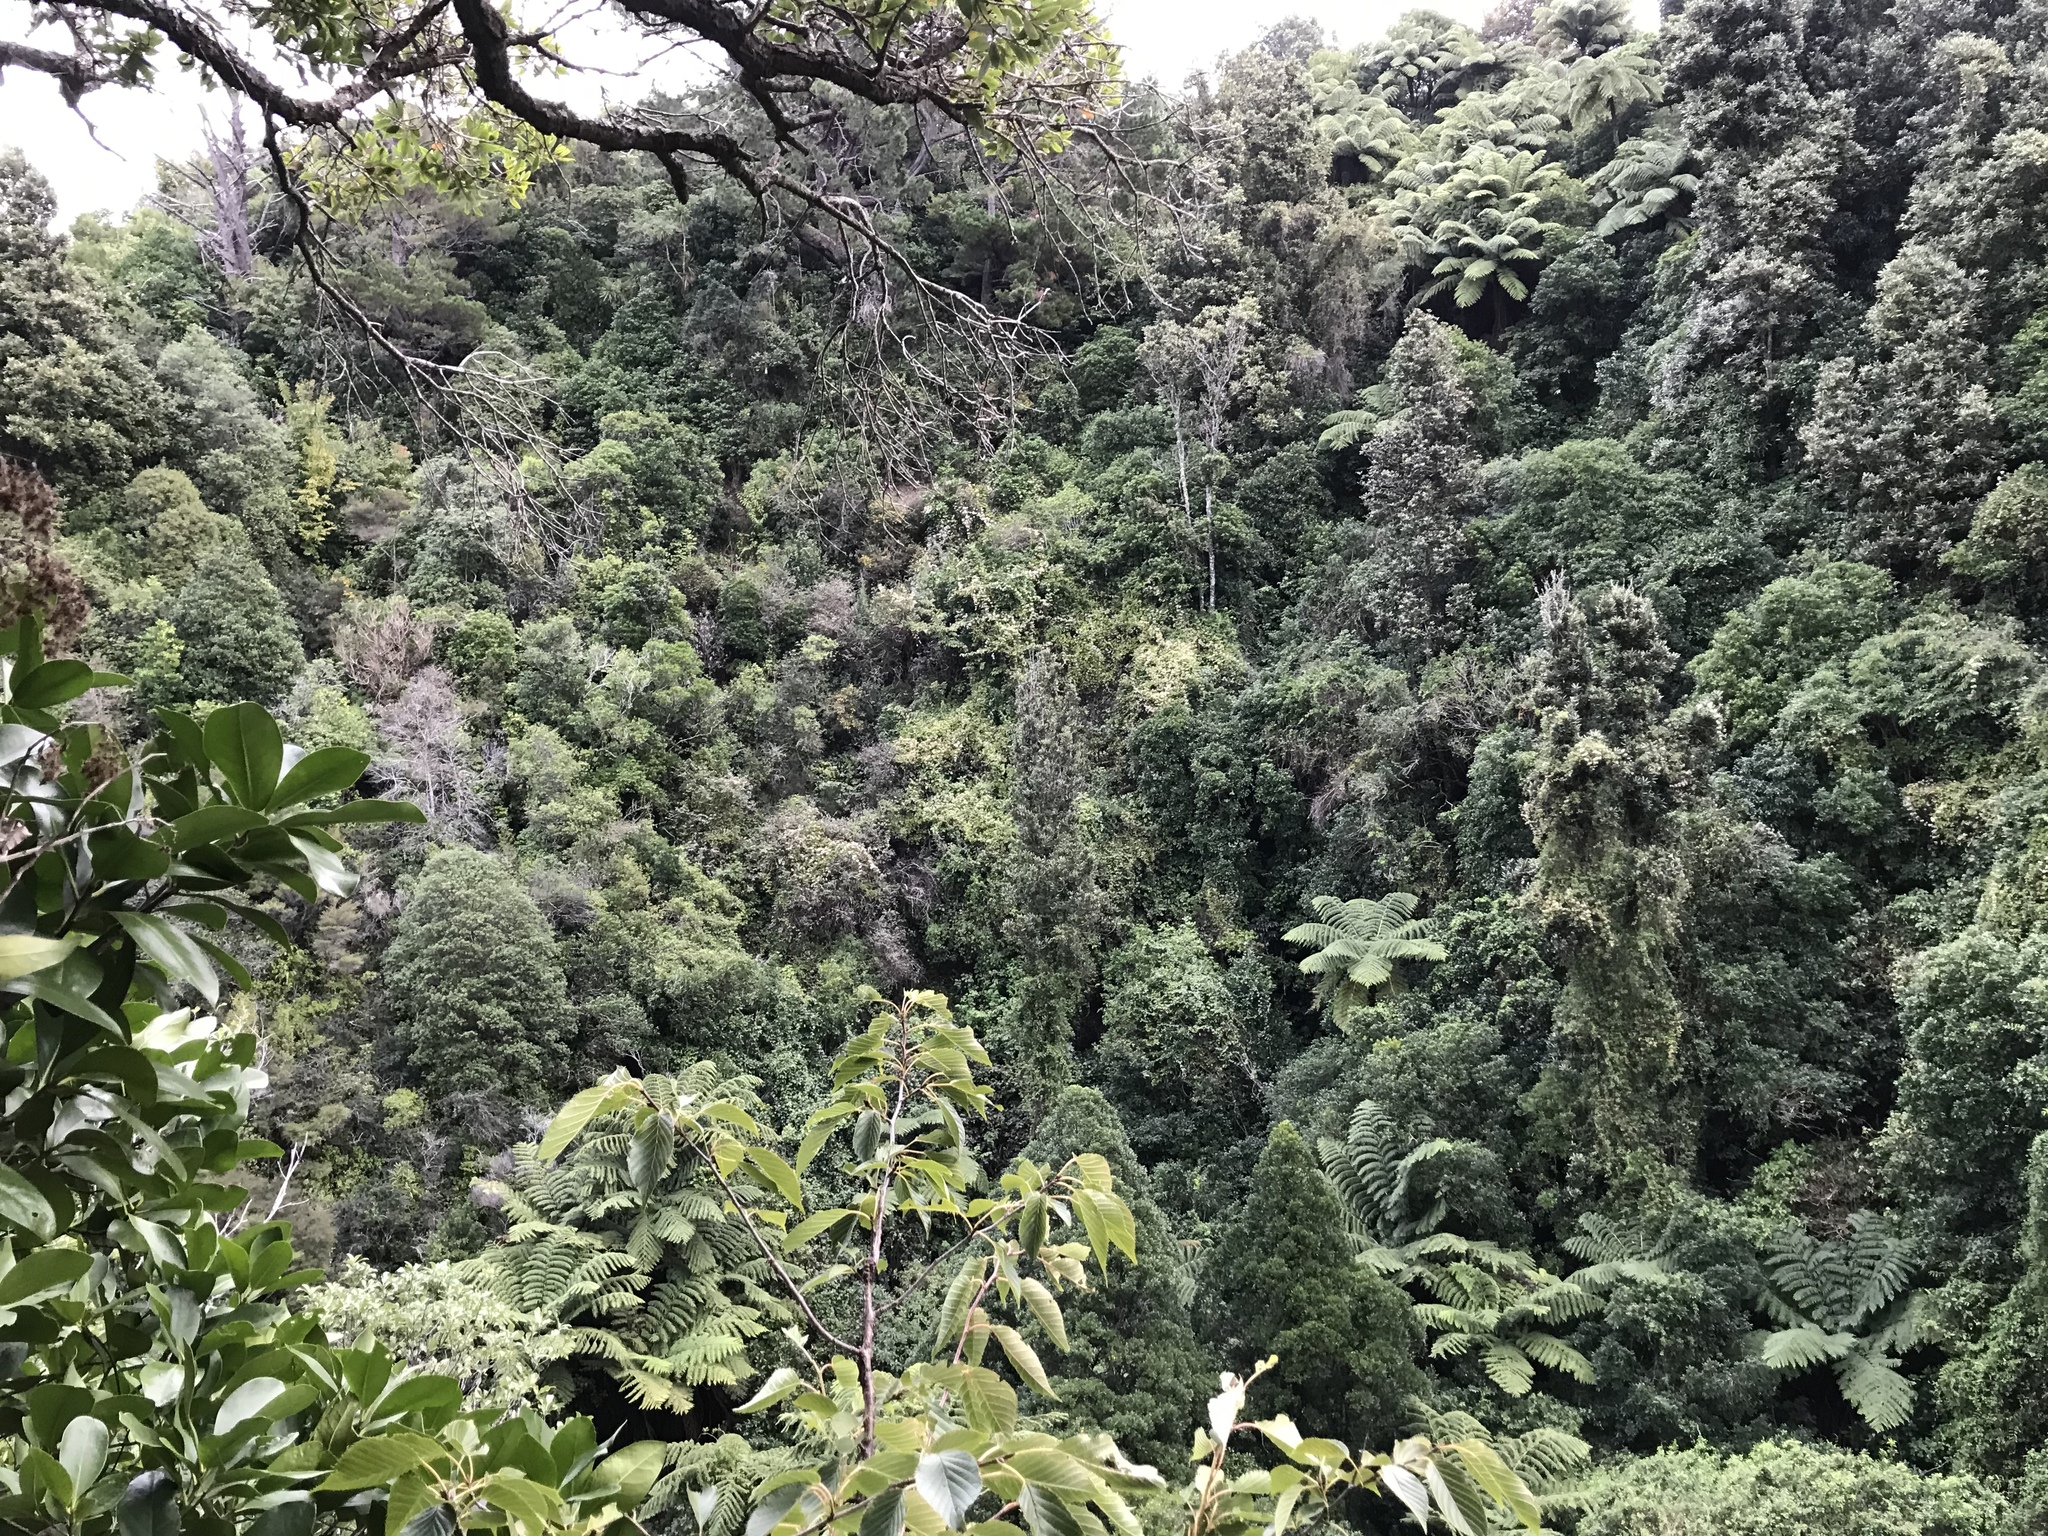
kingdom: Plantae
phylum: Tracheophyta
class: Magnoliopsida
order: Ranunculales
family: Ranunculaceae
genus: Clematis
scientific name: Clematis vitalba
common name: Evergreen clematis
